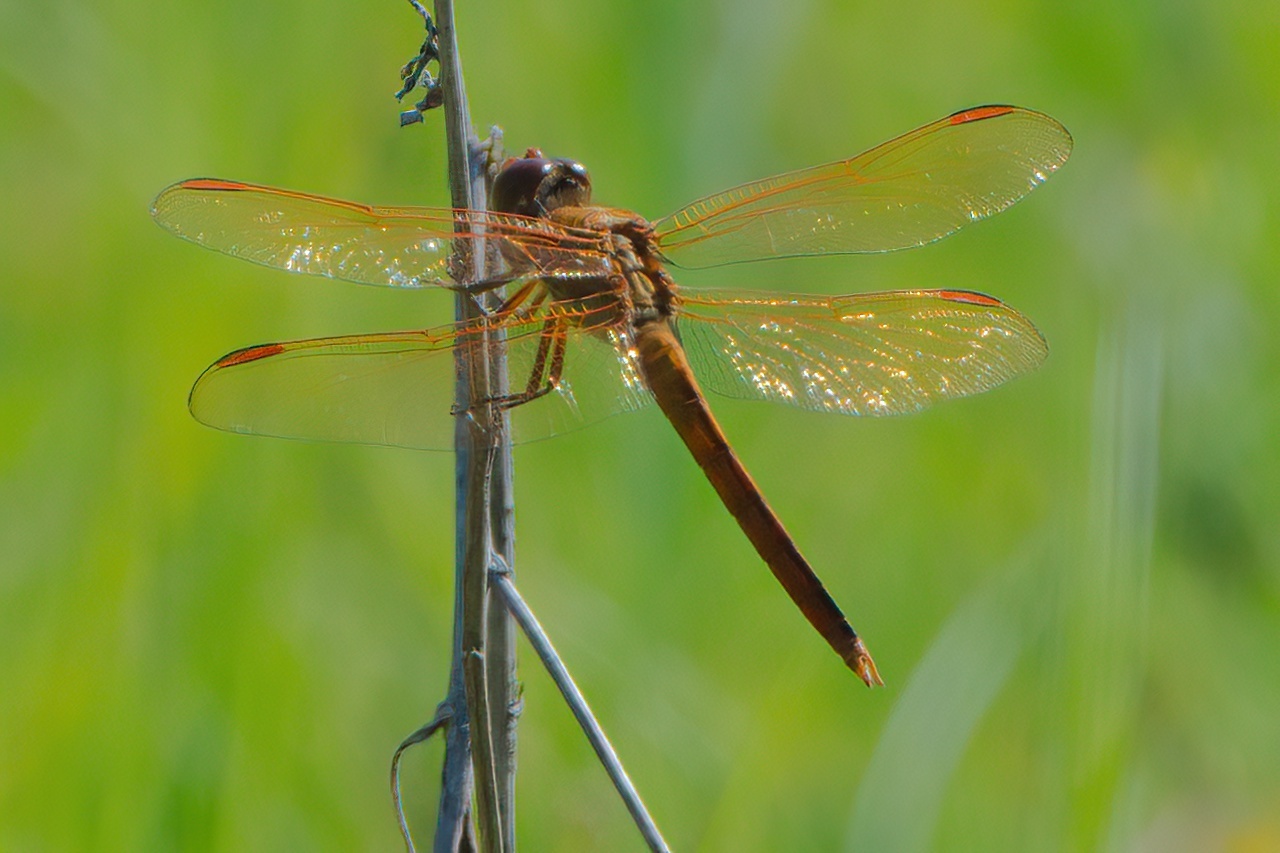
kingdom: Animalia
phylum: Arthropoda
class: Insecta
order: Odonata
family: Libellulidae
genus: Libellula
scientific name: Libellula auripennis
